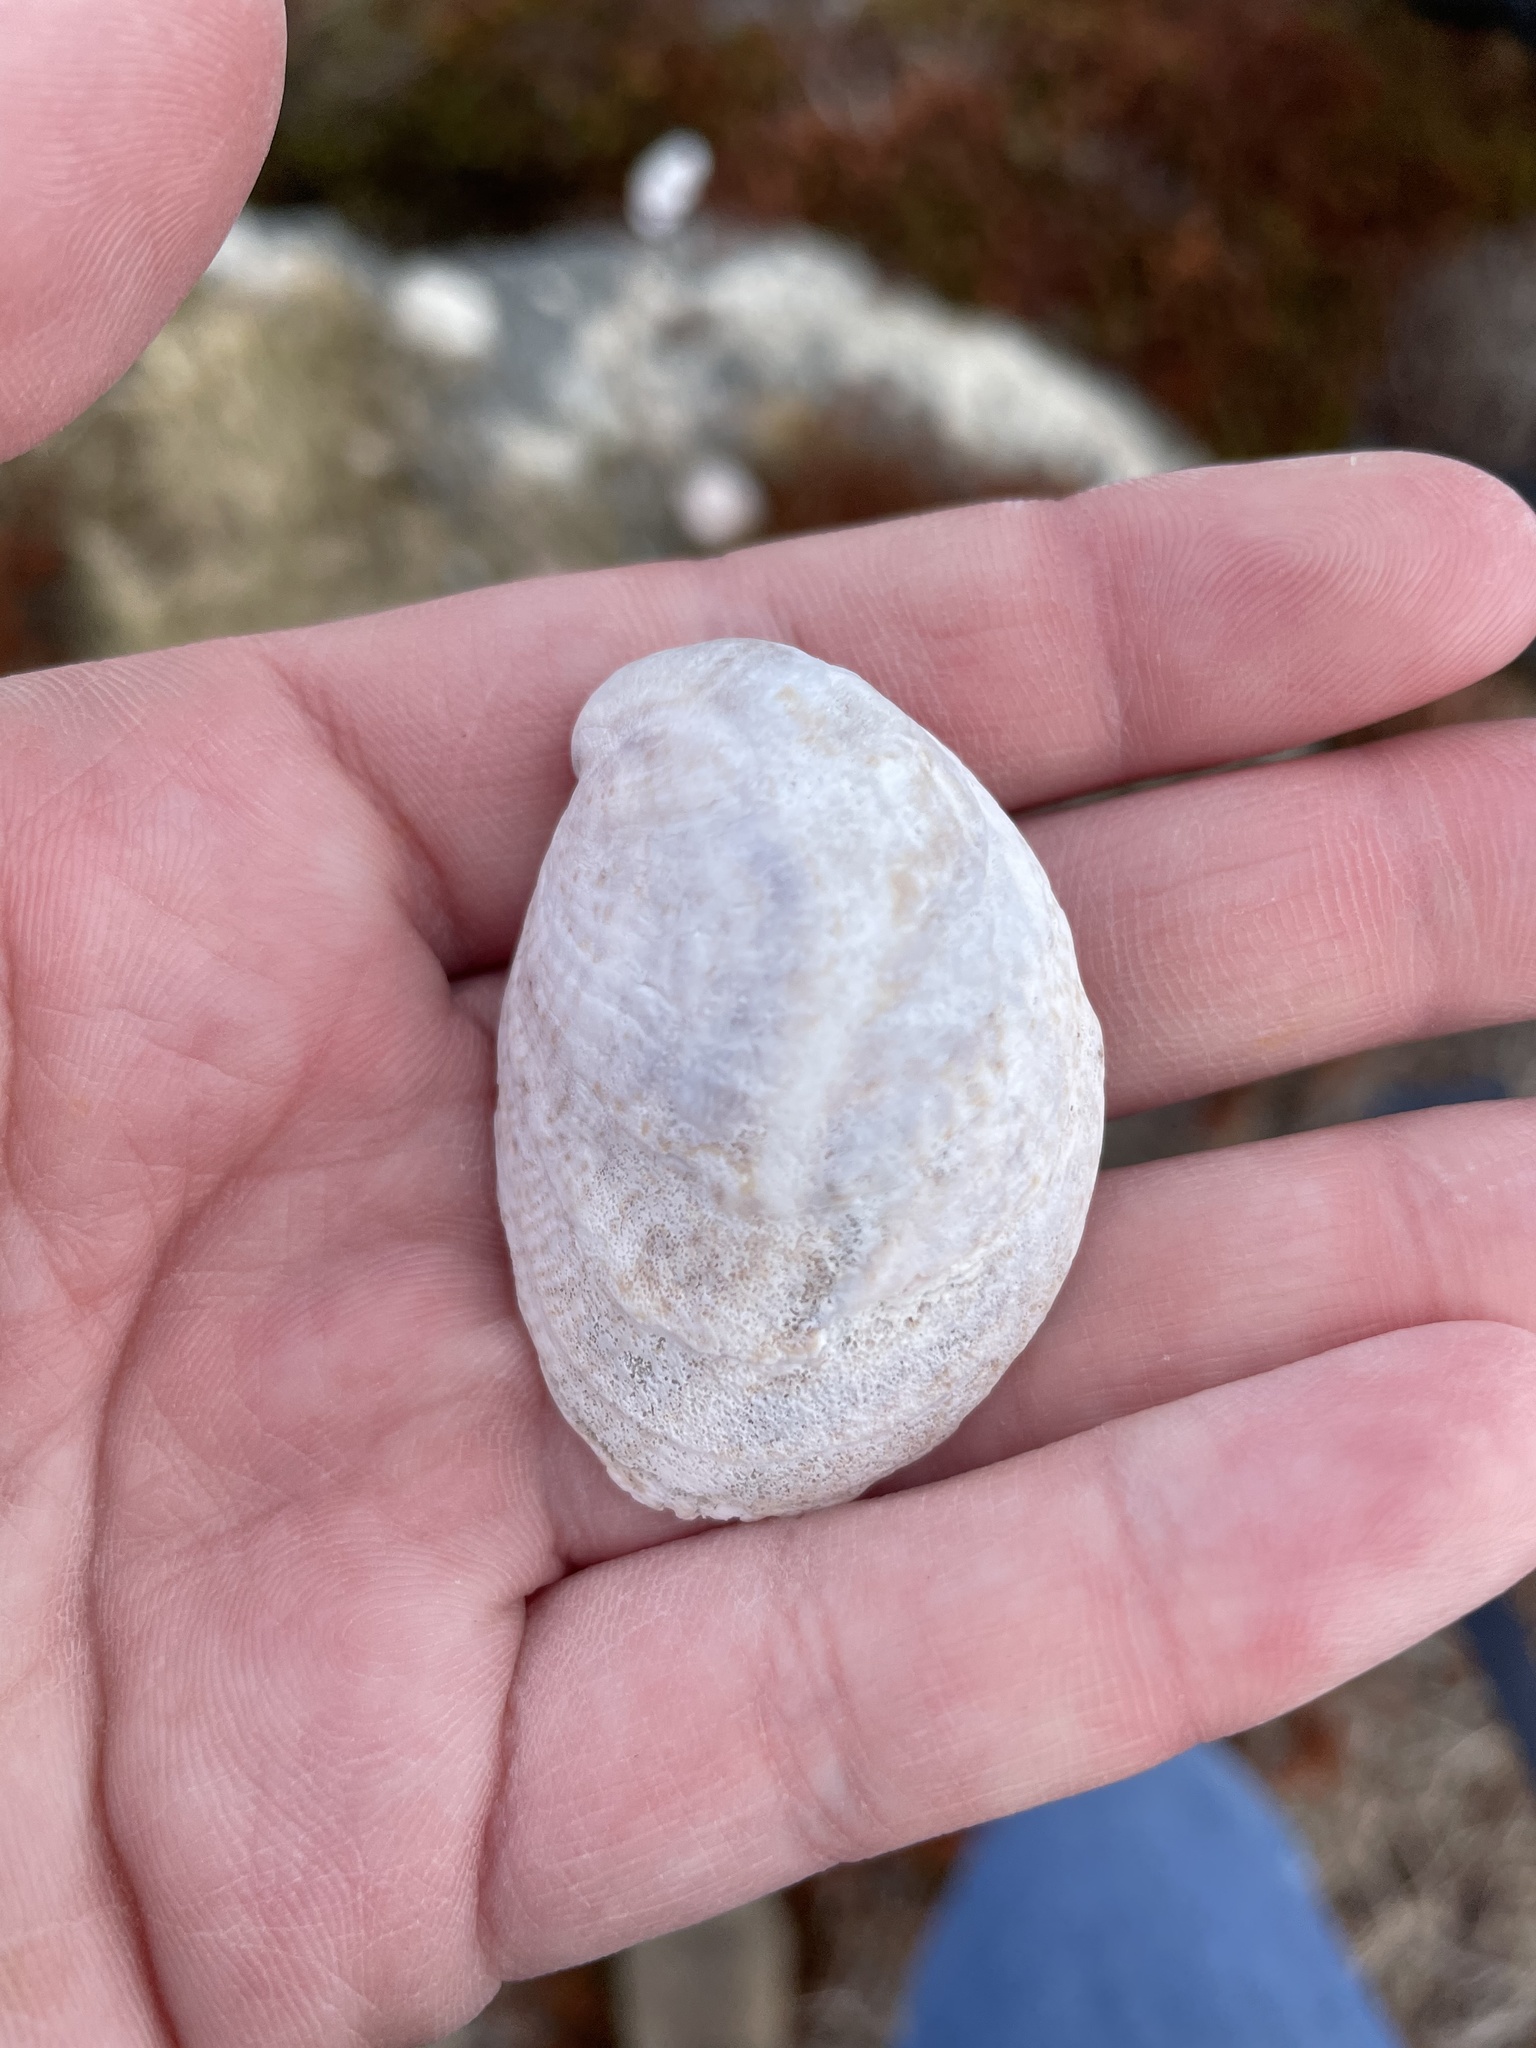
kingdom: Animalia
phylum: Mollusca
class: Gastropoda
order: Littorinimorpha
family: Calyptraeidae
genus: Crepidula
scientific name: Crepidula fornicata
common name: Slipper limpet
